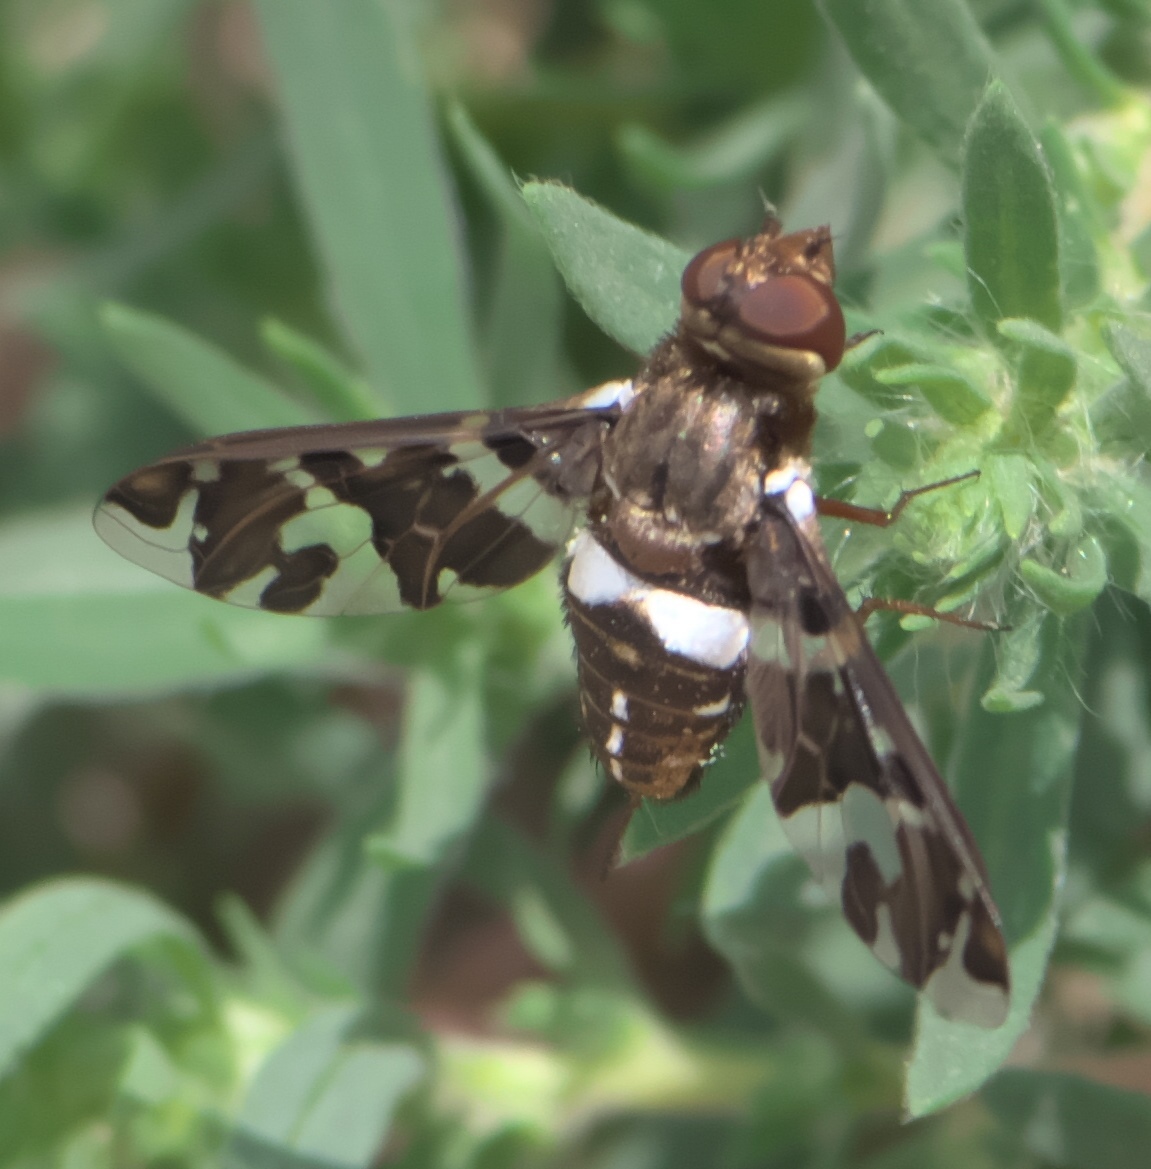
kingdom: Animalia
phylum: Arthropoda
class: Insecta
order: Diptera
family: Bombyliidae
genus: Exoprosopa
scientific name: Exoprosopa caliptera
